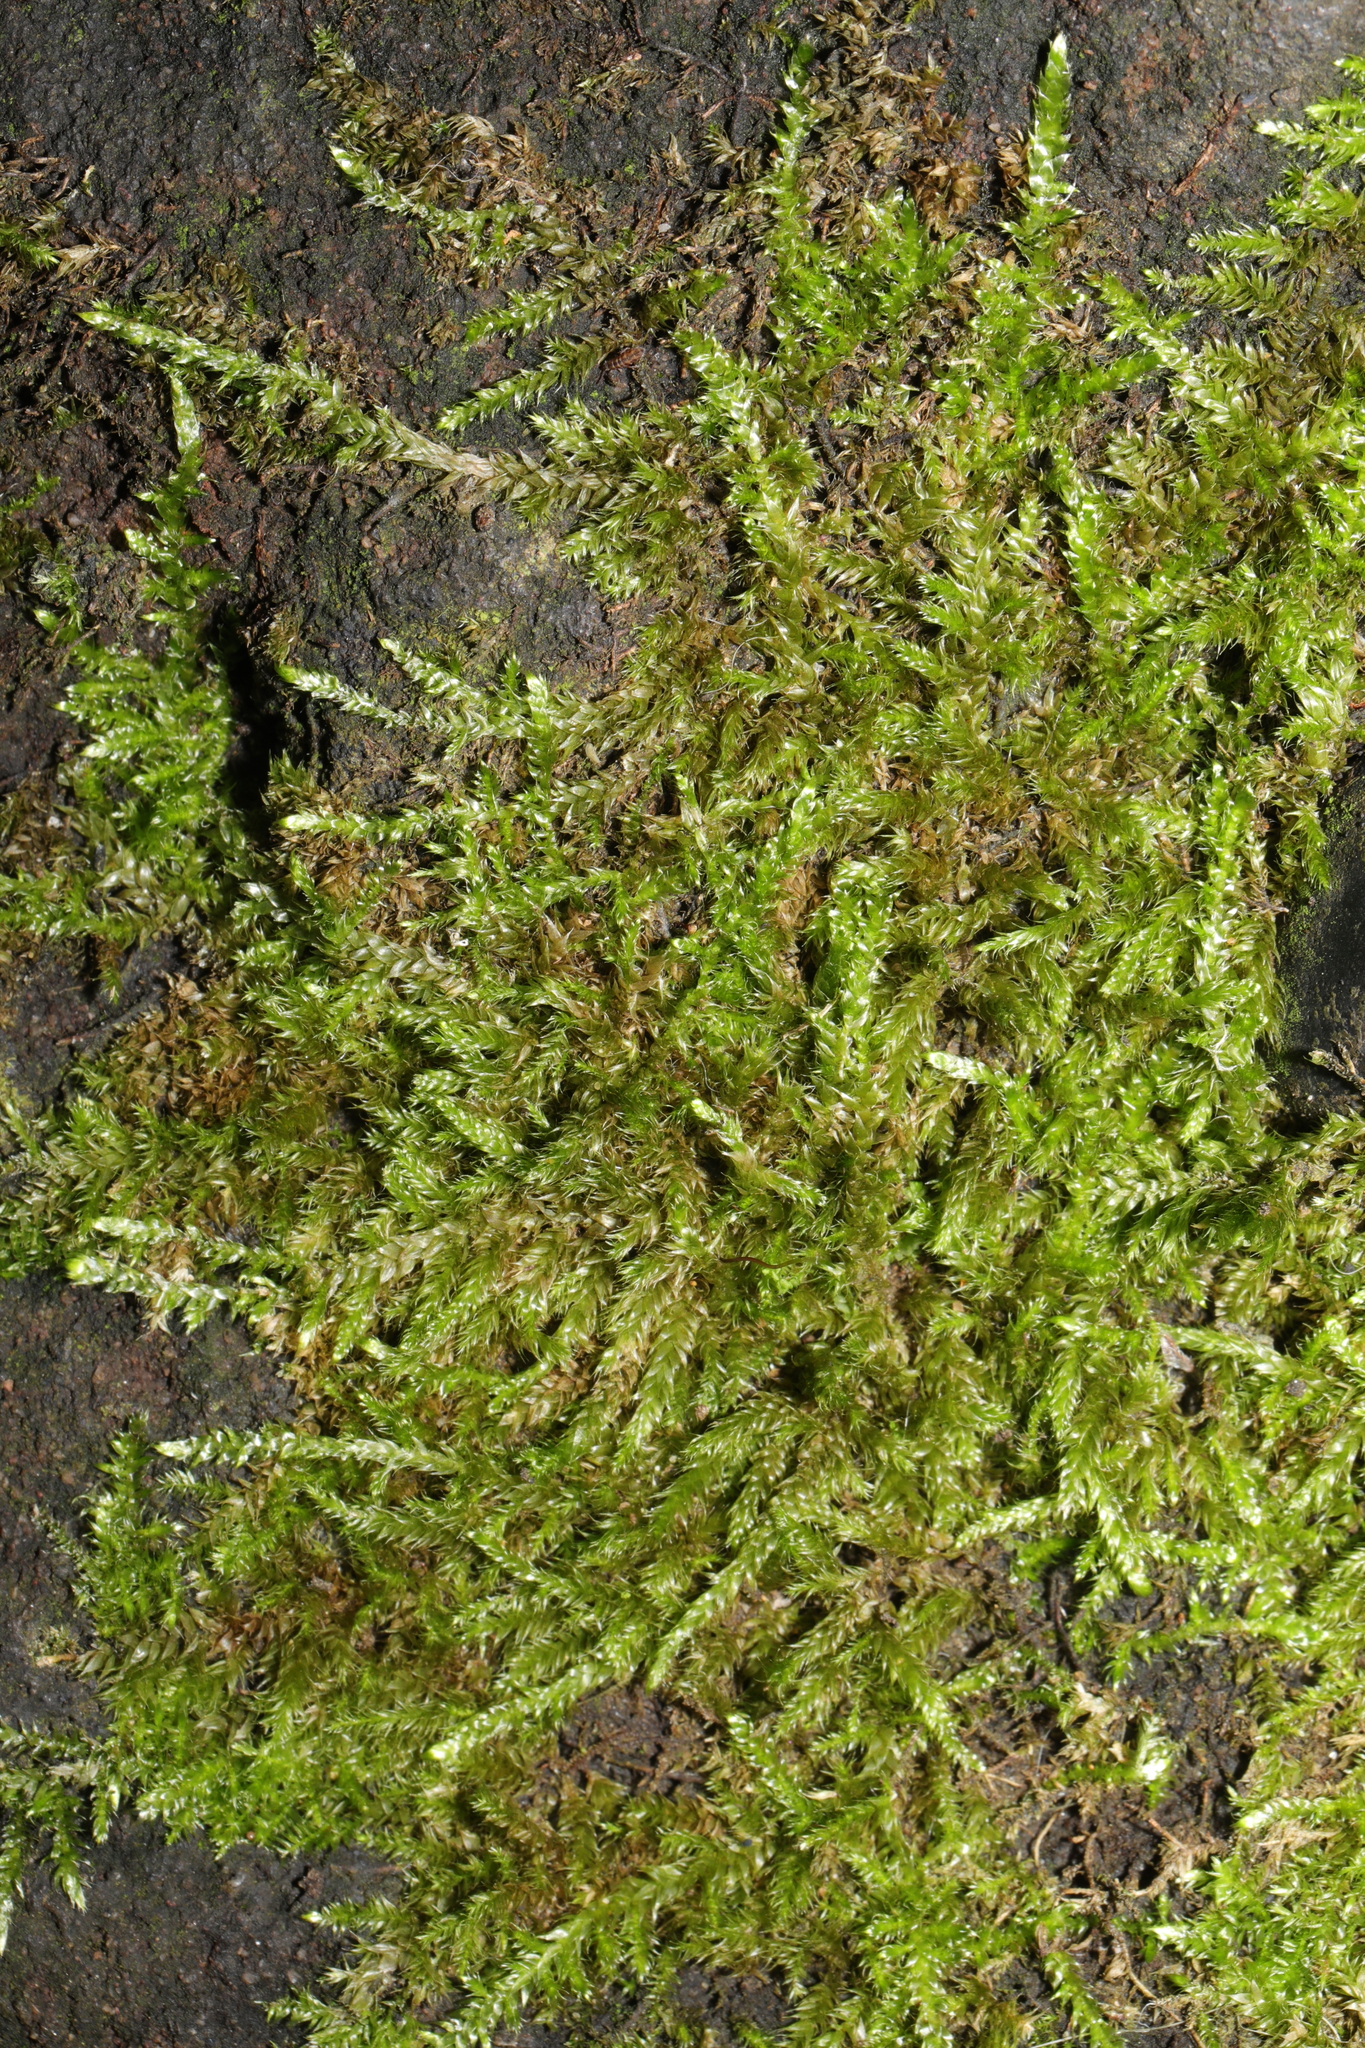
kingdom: Plantae
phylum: Bryophyta
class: Bryopsida
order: Hypnales
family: Hypnaceae
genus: Hypnum
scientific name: Hypnum cupressiforme
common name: Cypress-leaved plait-moss
